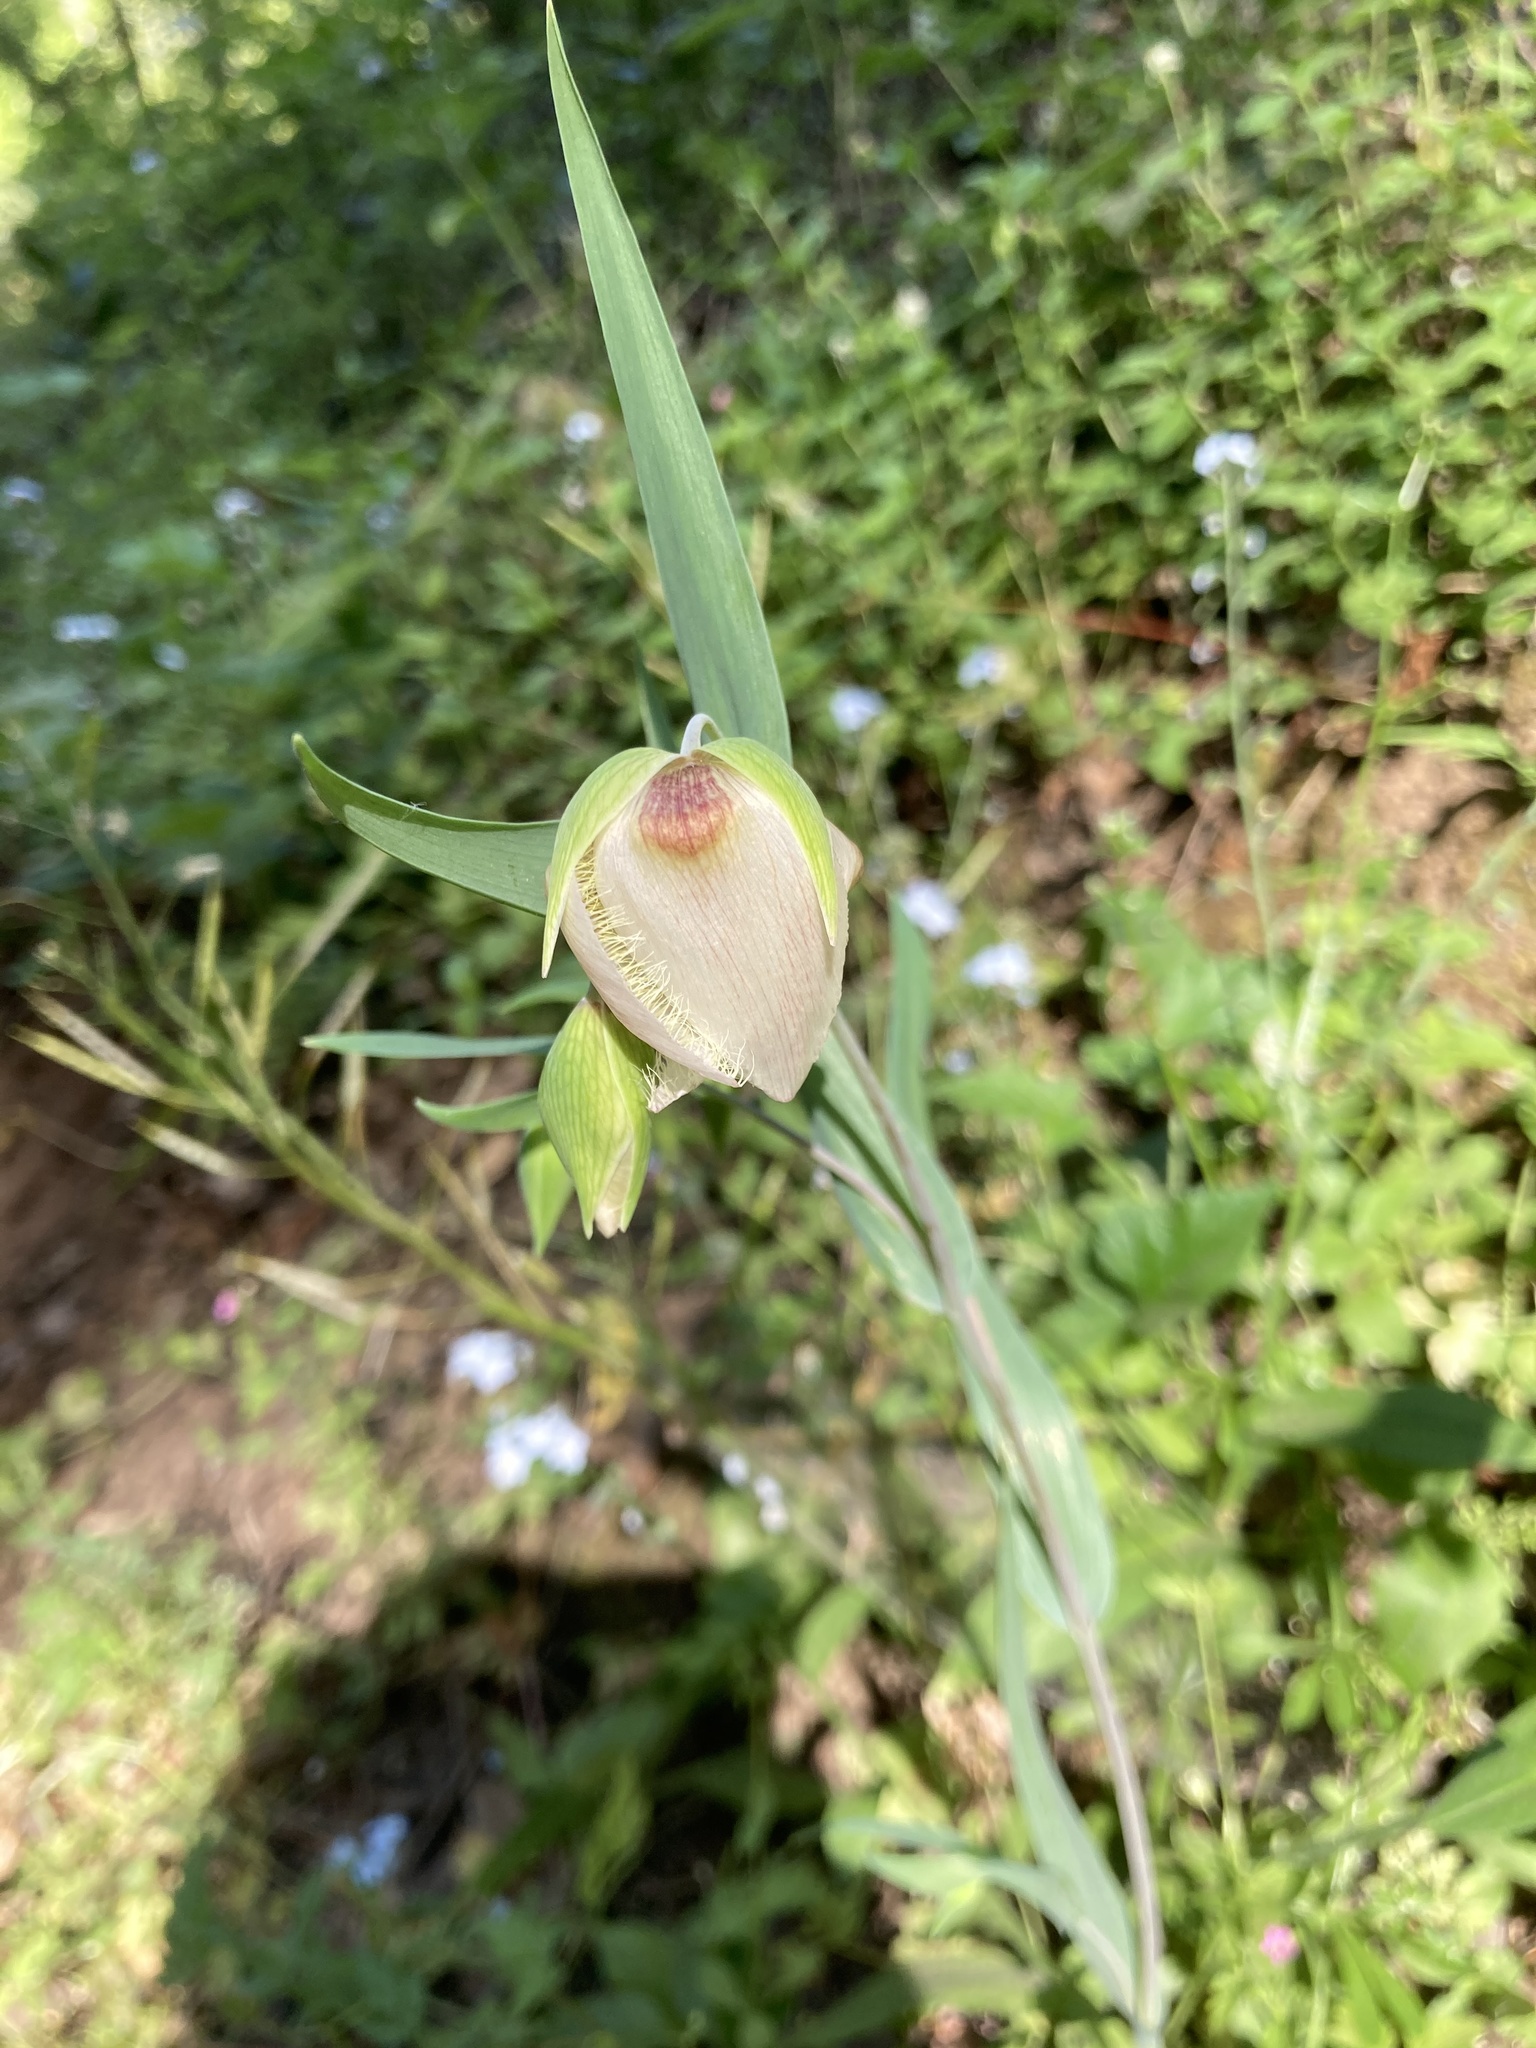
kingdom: Plantae
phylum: Tracheophyta
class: Liliopsida
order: Liliales
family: Liliaceae
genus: Calochortus
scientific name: Calochortus albus
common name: Fairy-lantern
